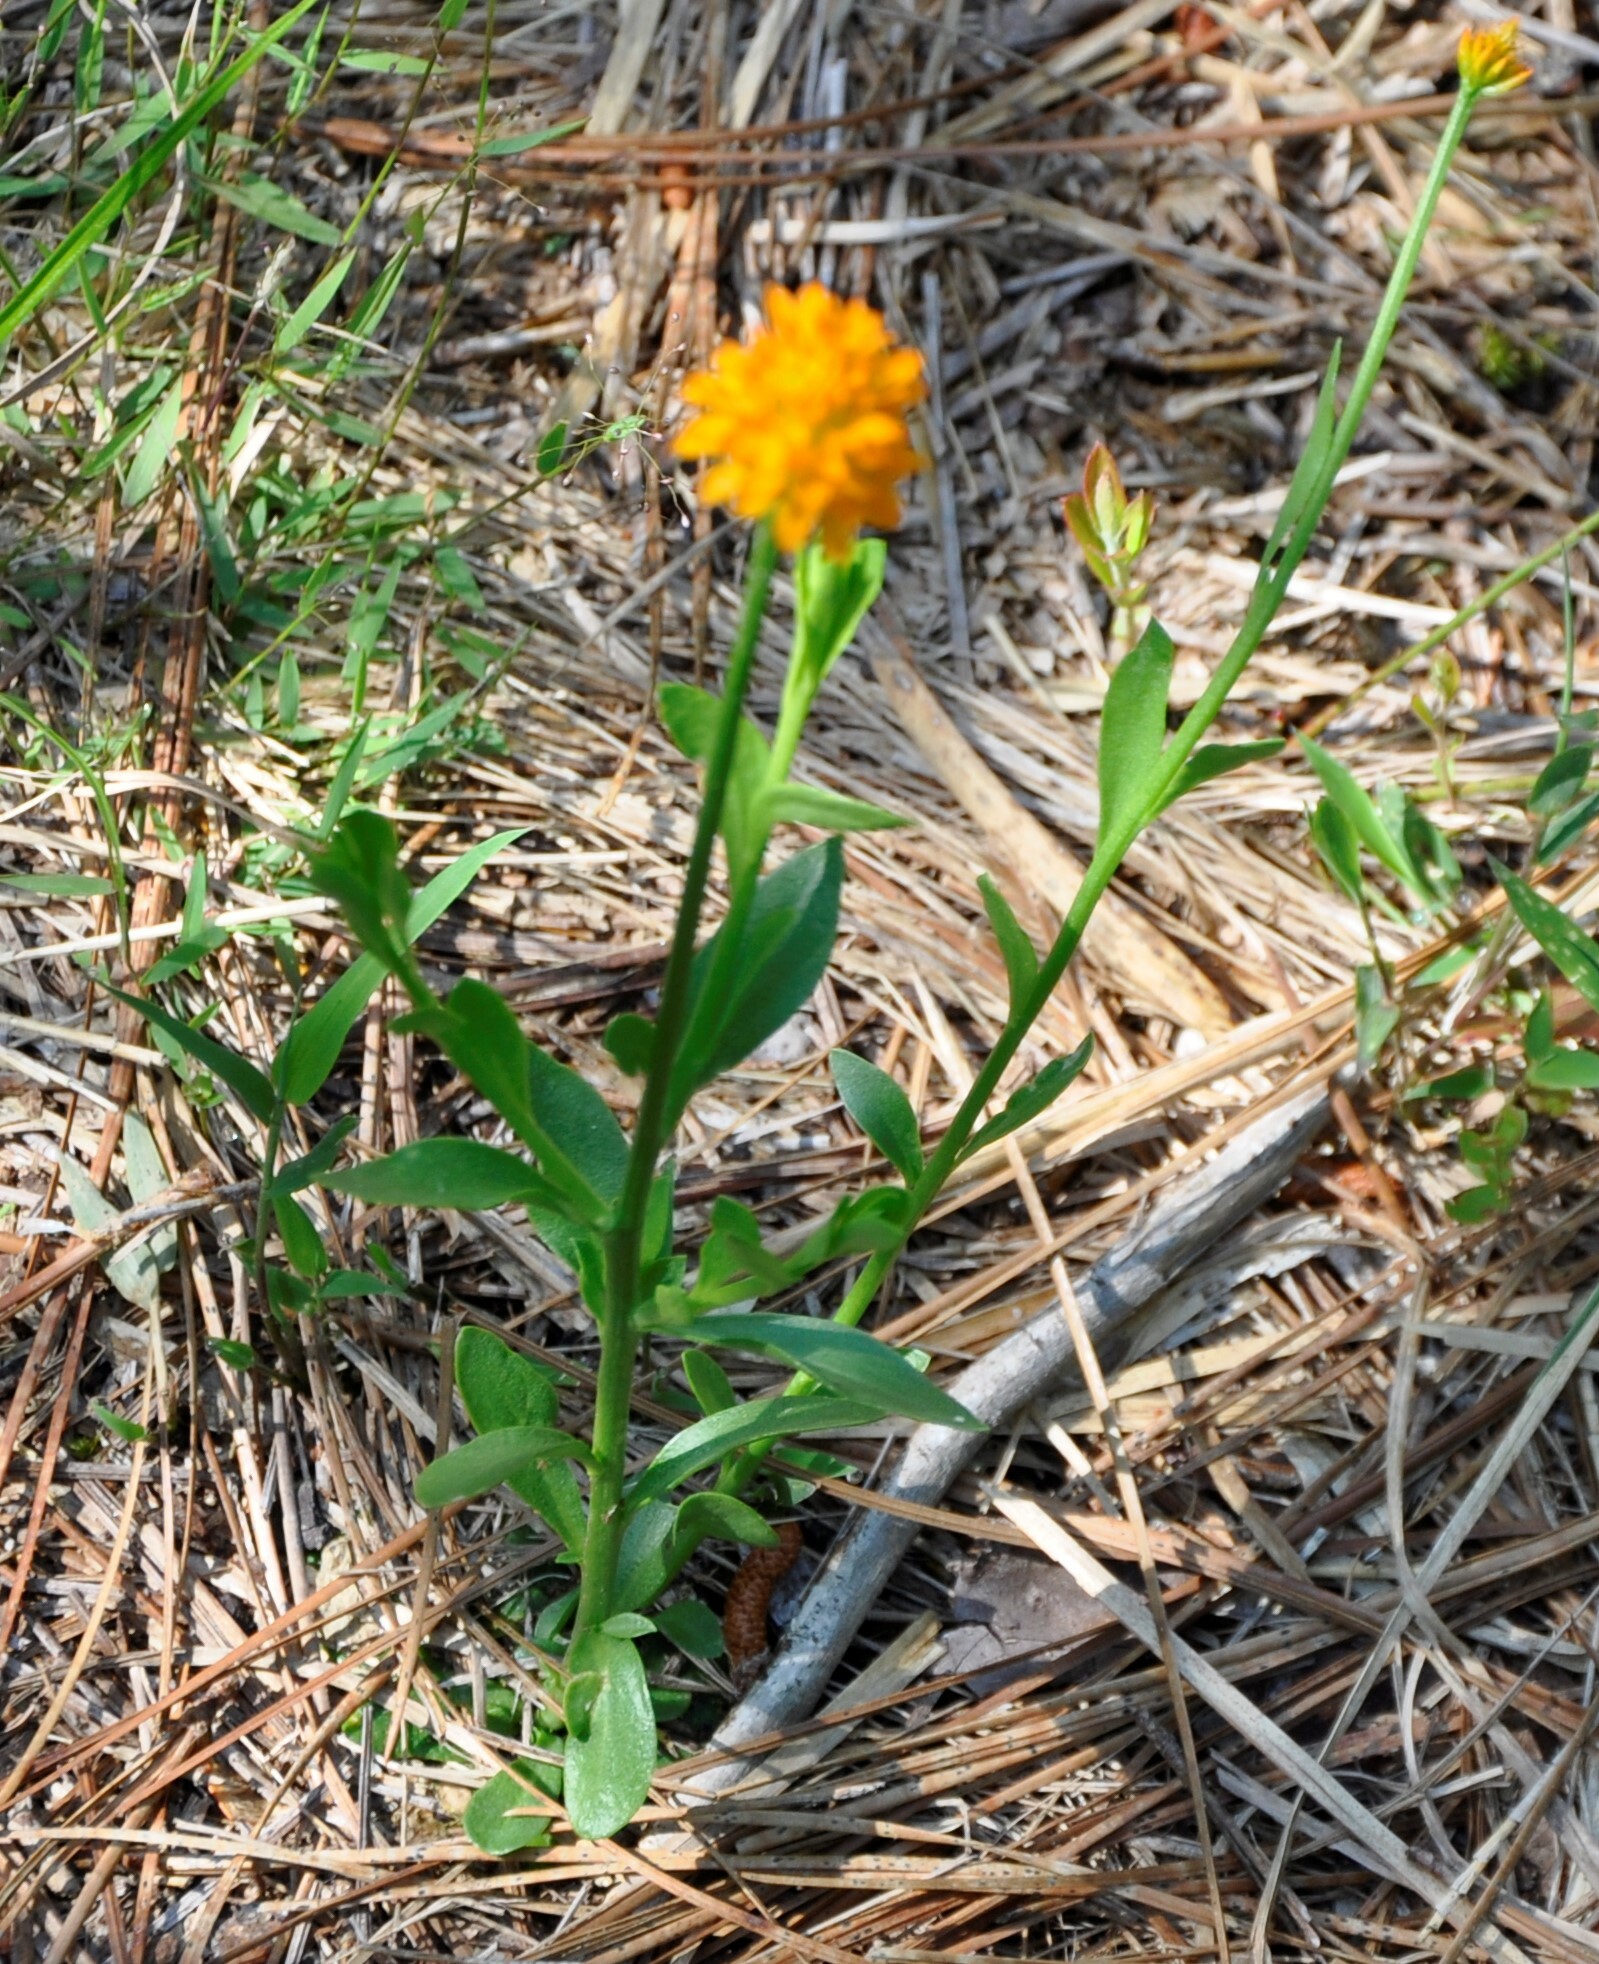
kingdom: Plantae
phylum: Tracheophyta
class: Magnoliopsida
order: Fabales
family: Polygalaceae
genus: Polygala
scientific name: Polygala lutea
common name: Orange milkwort
